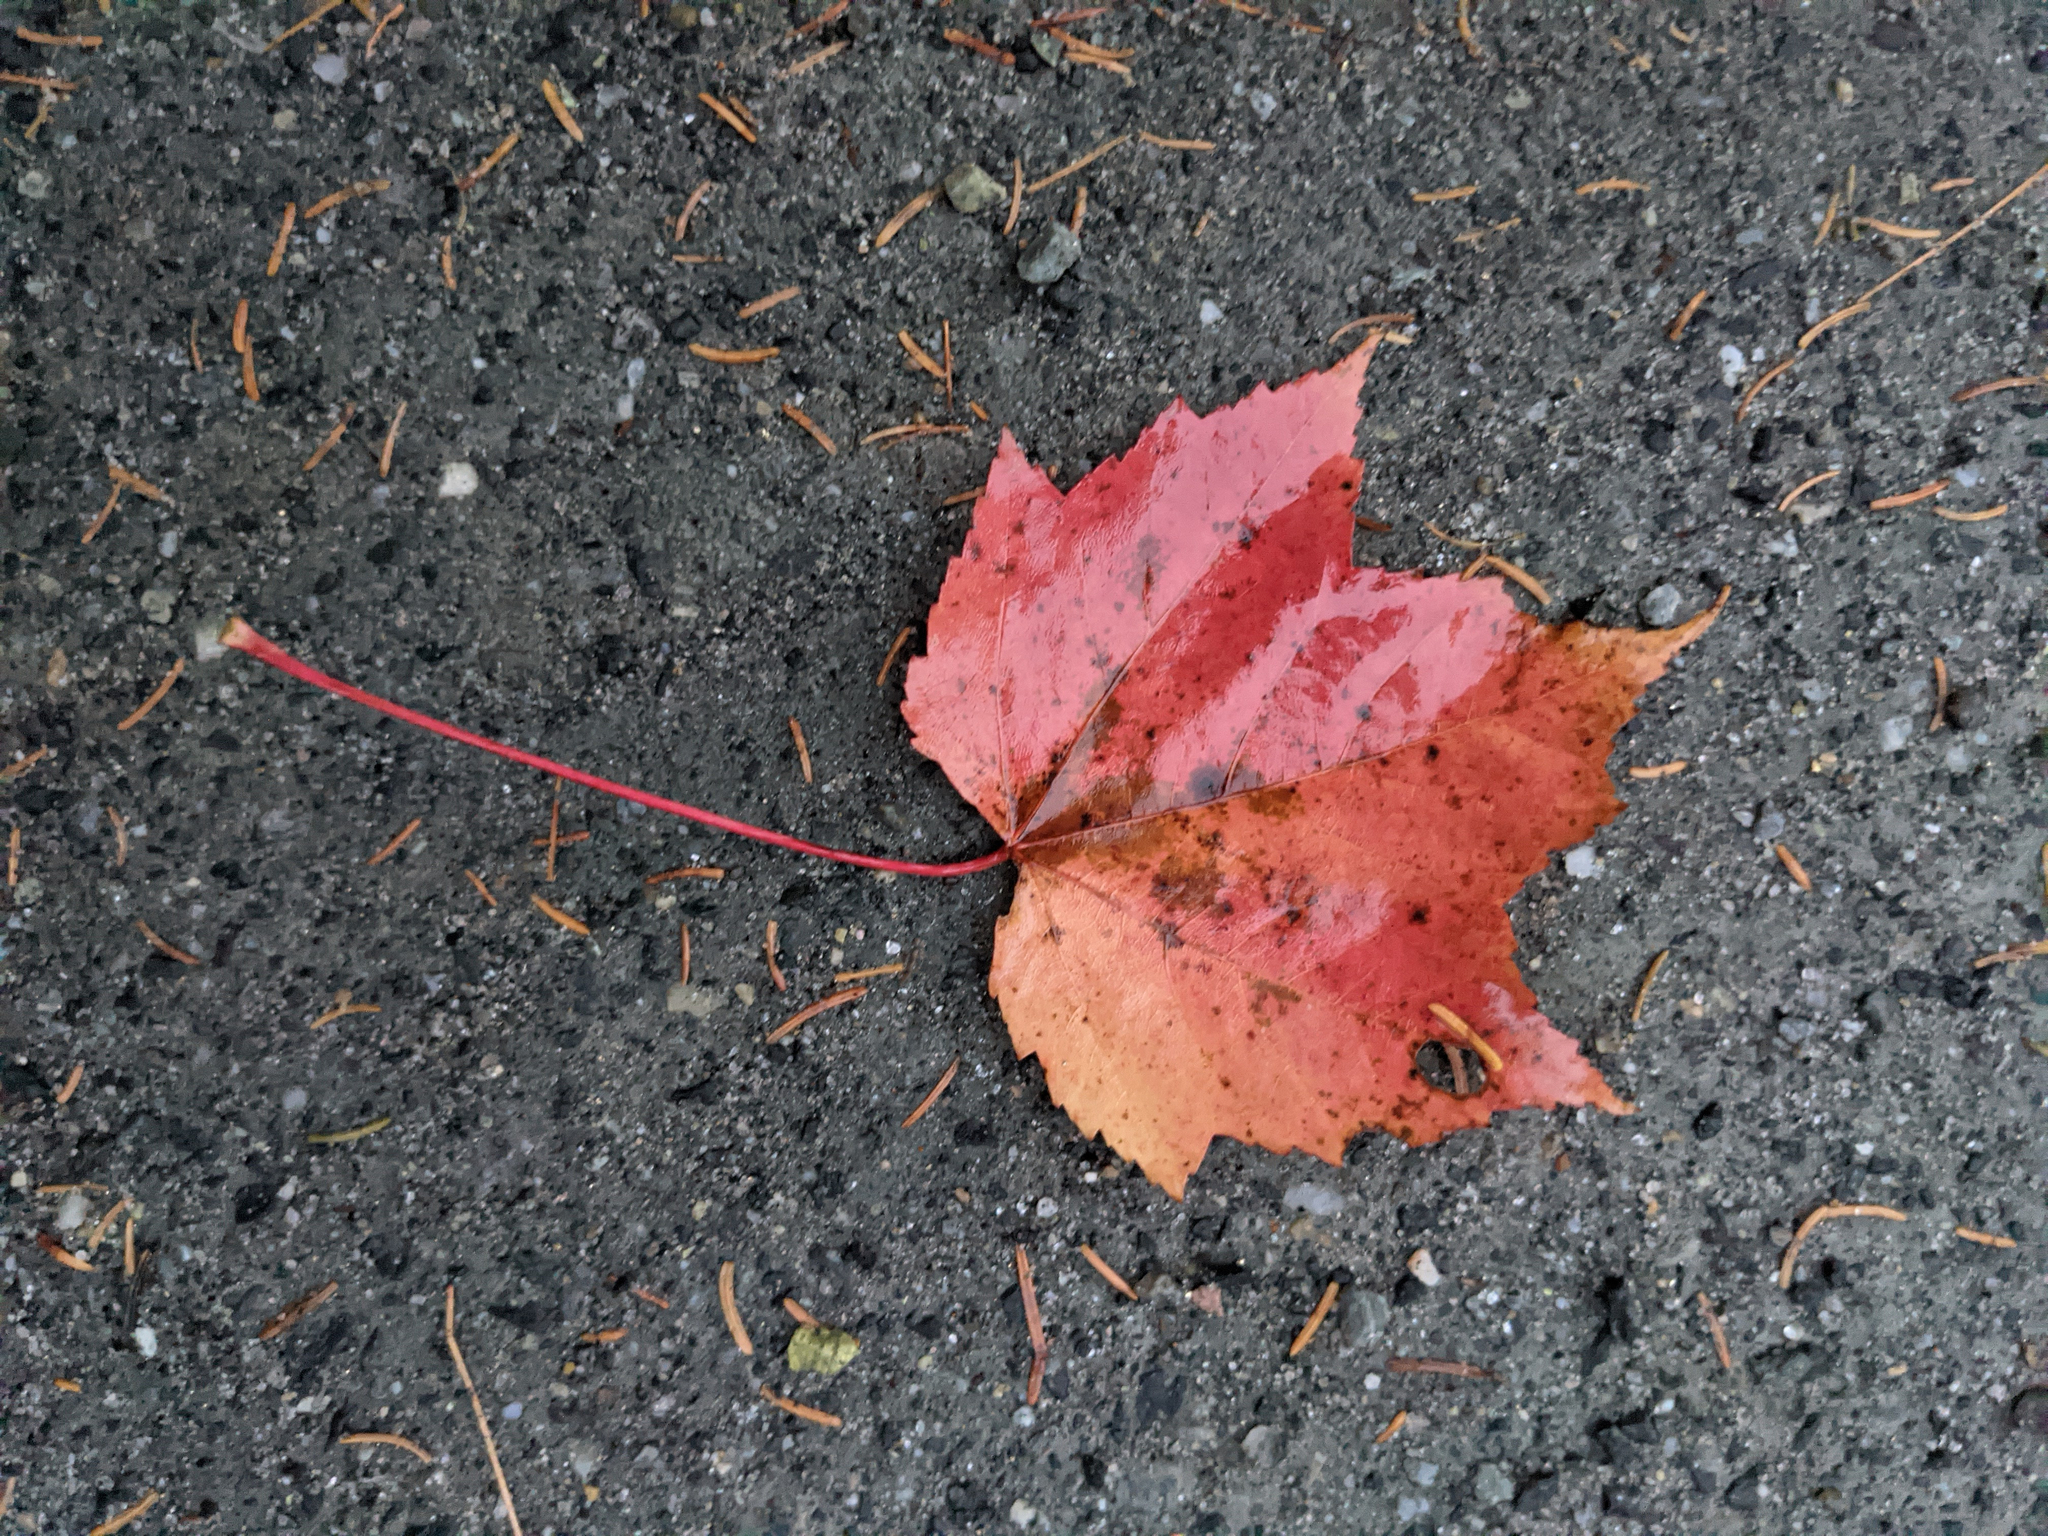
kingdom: Plantae
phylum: Tracheophyta
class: Magnoliopsida
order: Sapindales
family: Sapindaceae
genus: Acer
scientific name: Acer rubrum
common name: Red maple
